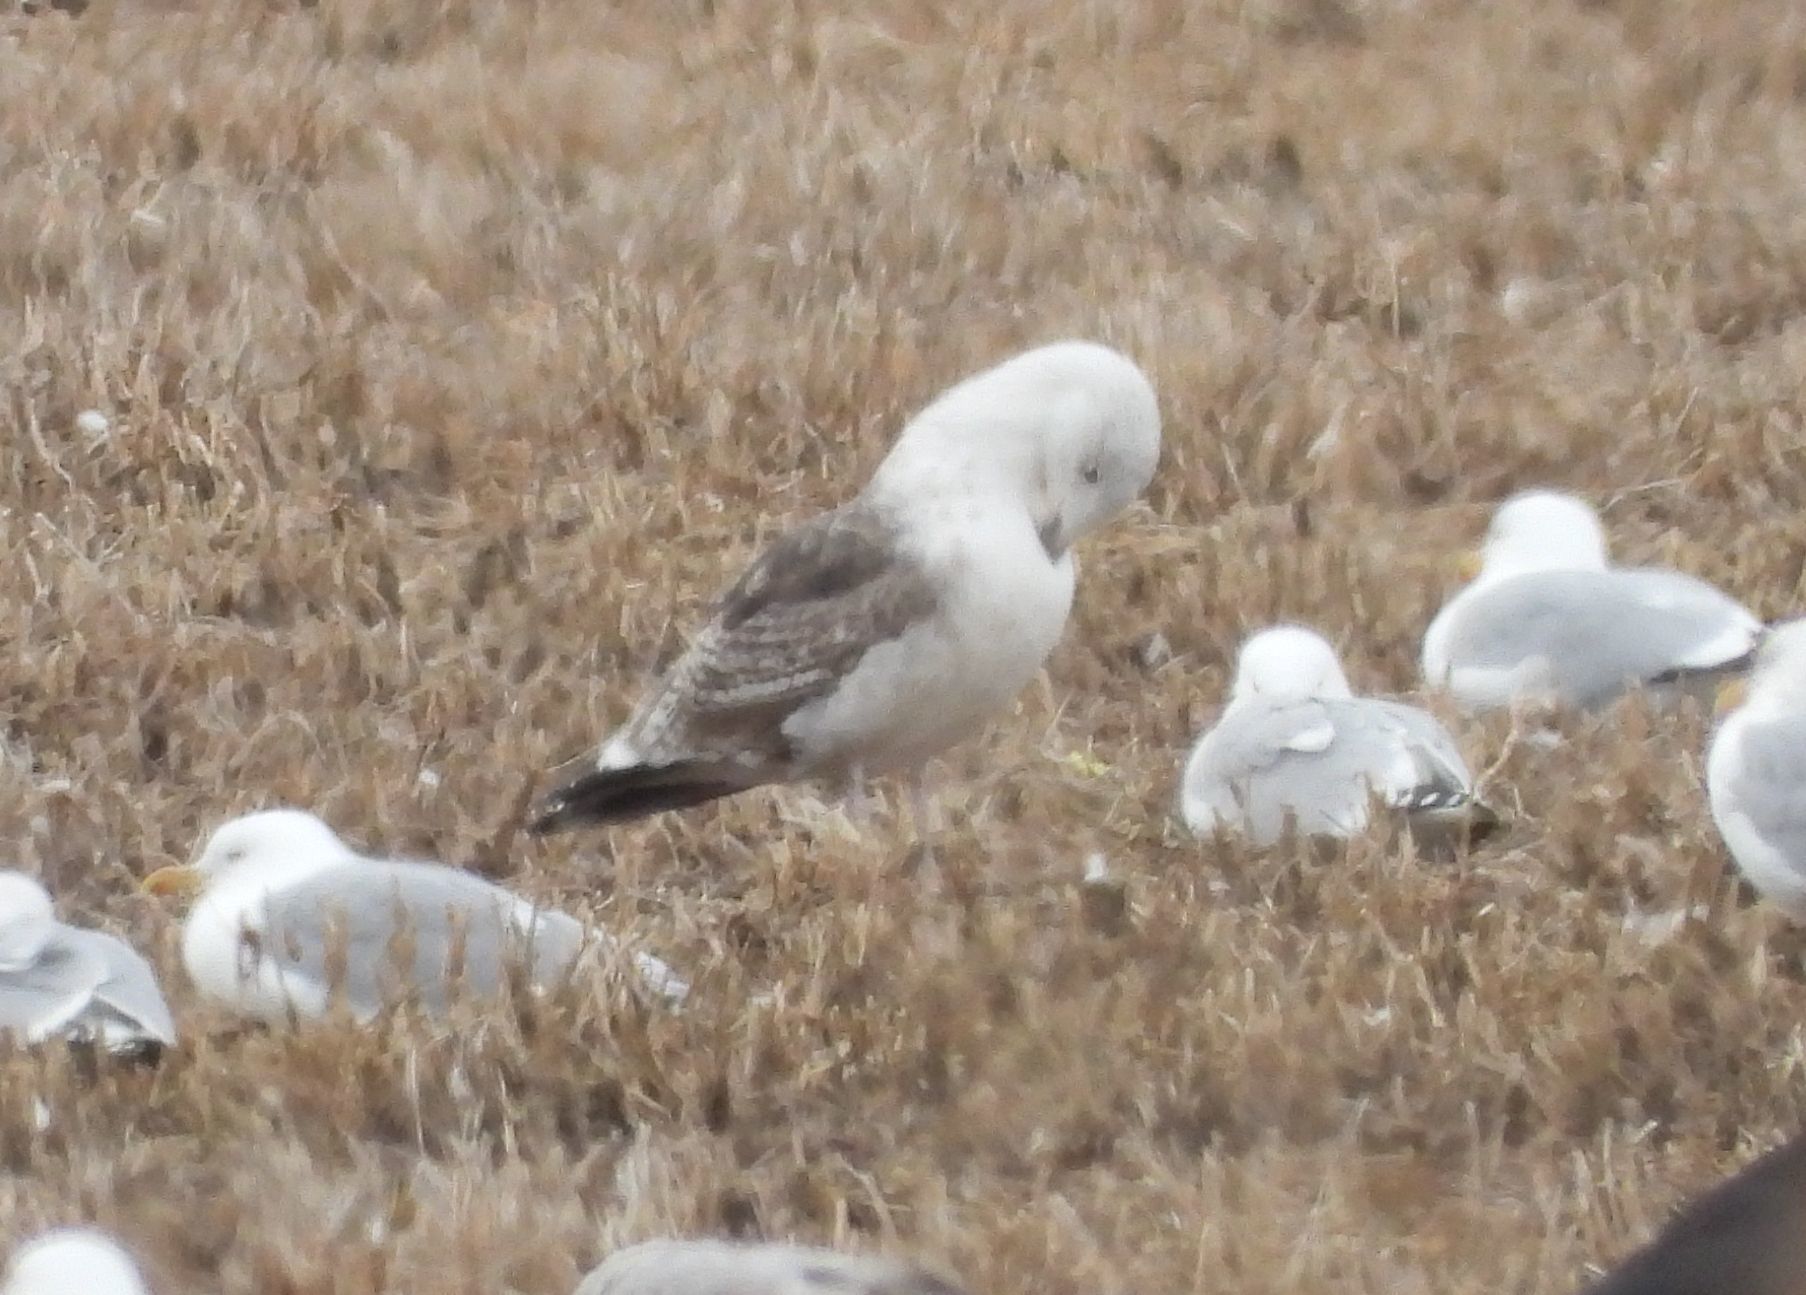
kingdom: Animalia
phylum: Chordata
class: Aves
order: Charadriiformes
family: Laridae
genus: Larus
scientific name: Larus marinus
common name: Great black-backed gull
